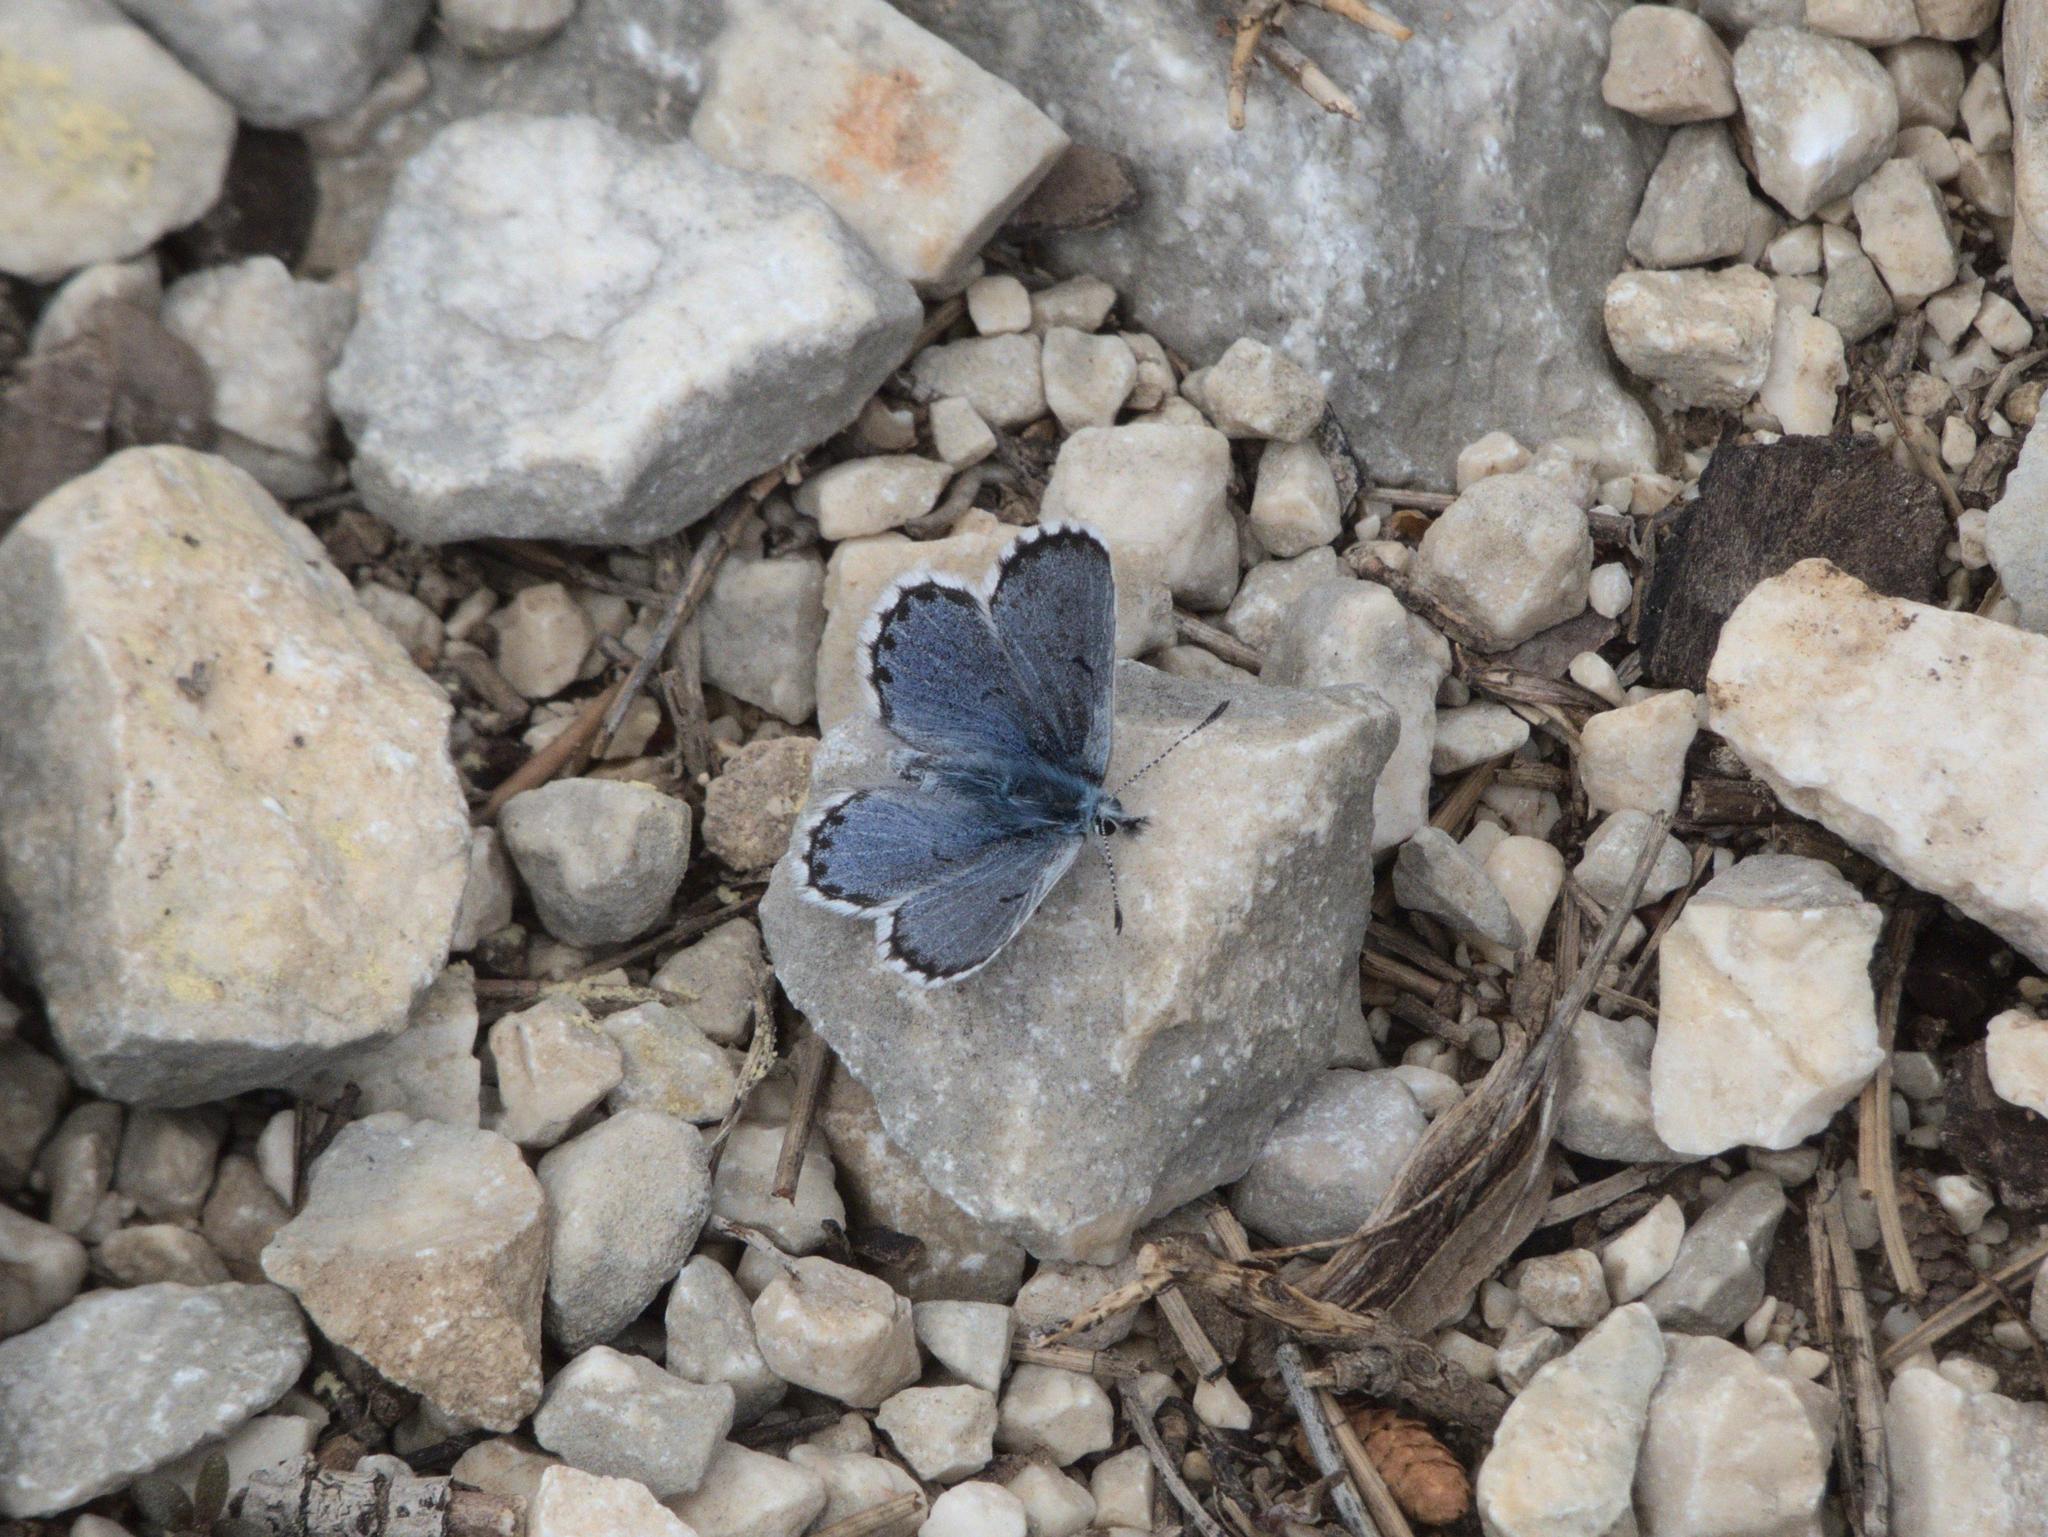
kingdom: Animalia
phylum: Arthropoda
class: Insecta
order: Lepidoptera
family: Lycaenidae
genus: Pseudophilotes
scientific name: Pseudophilotes baton
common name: Baton blue
